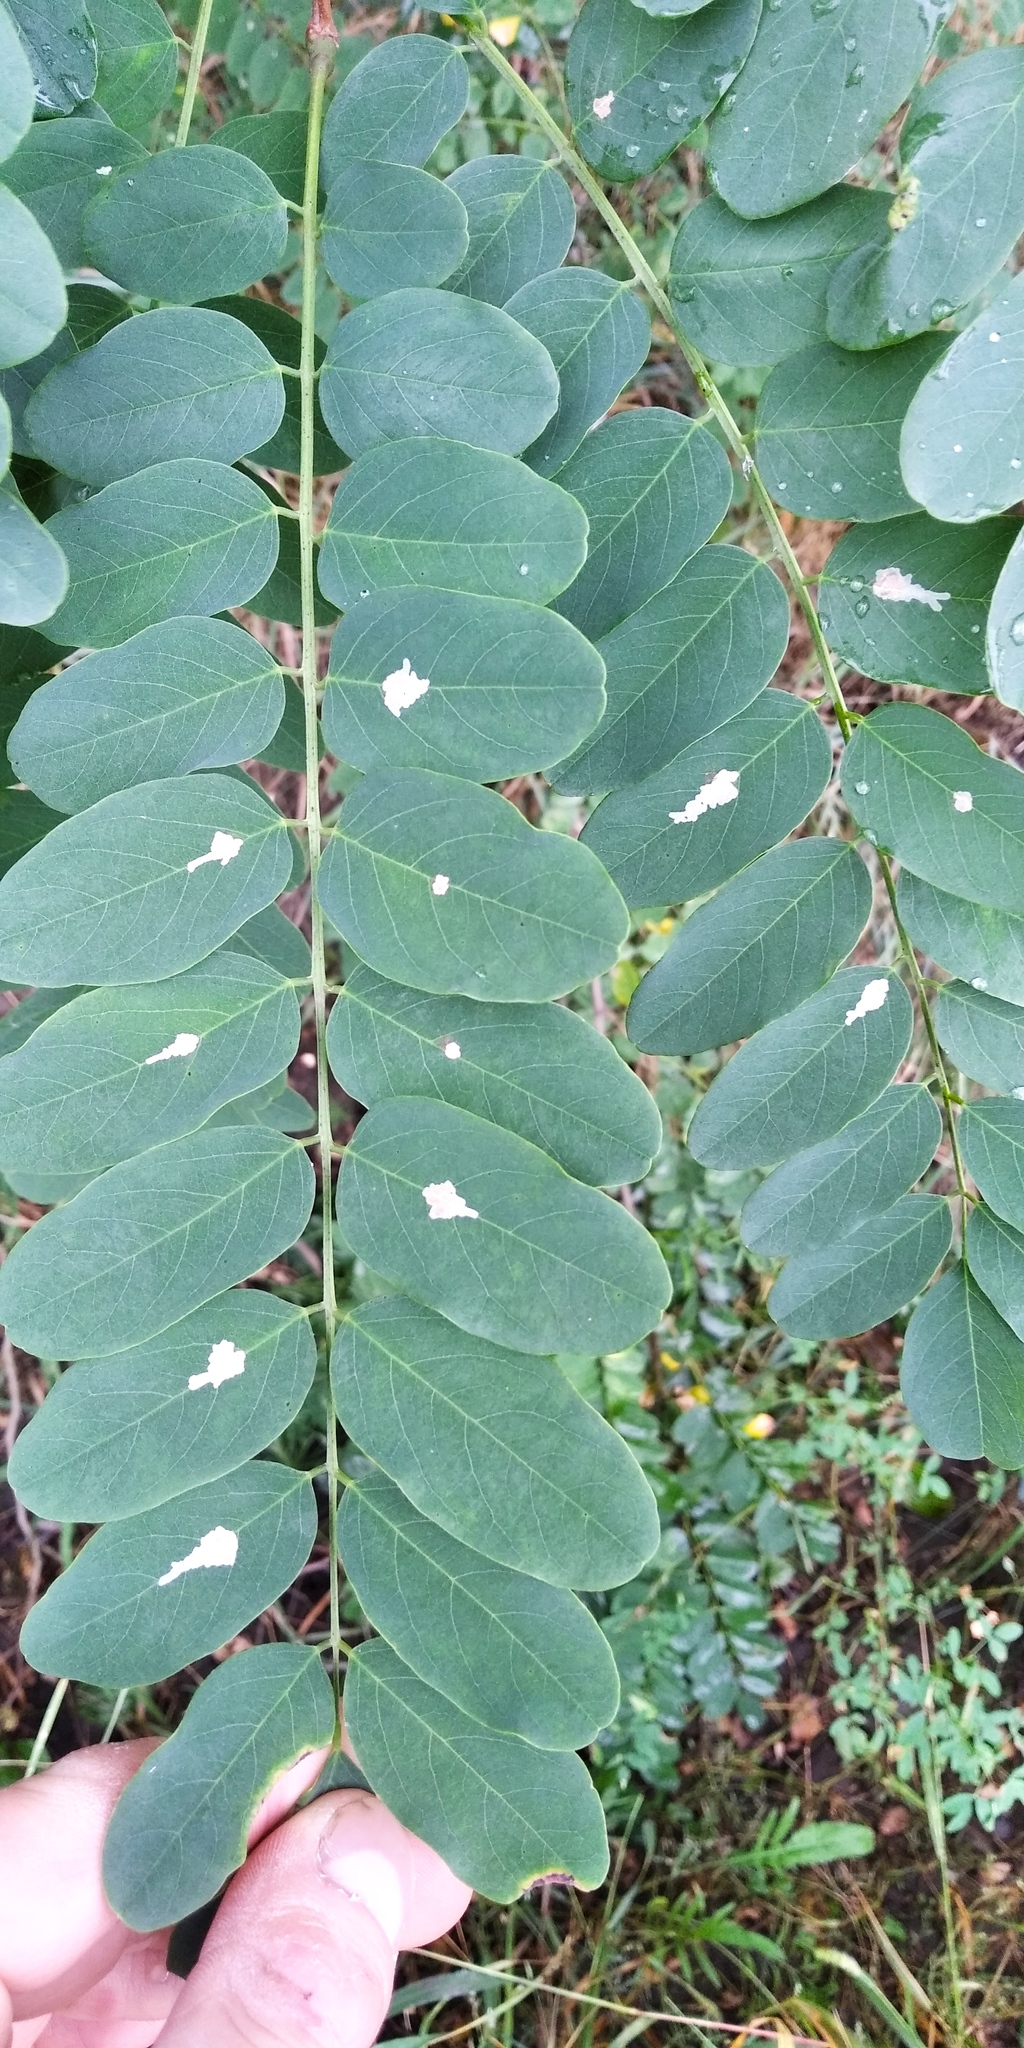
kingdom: Animalia
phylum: Arthropoda
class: Insecta
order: Lepidoptera
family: Gracillariidae
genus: Parectopa
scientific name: Parectopa robiniella
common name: Locust digitate leafminer
